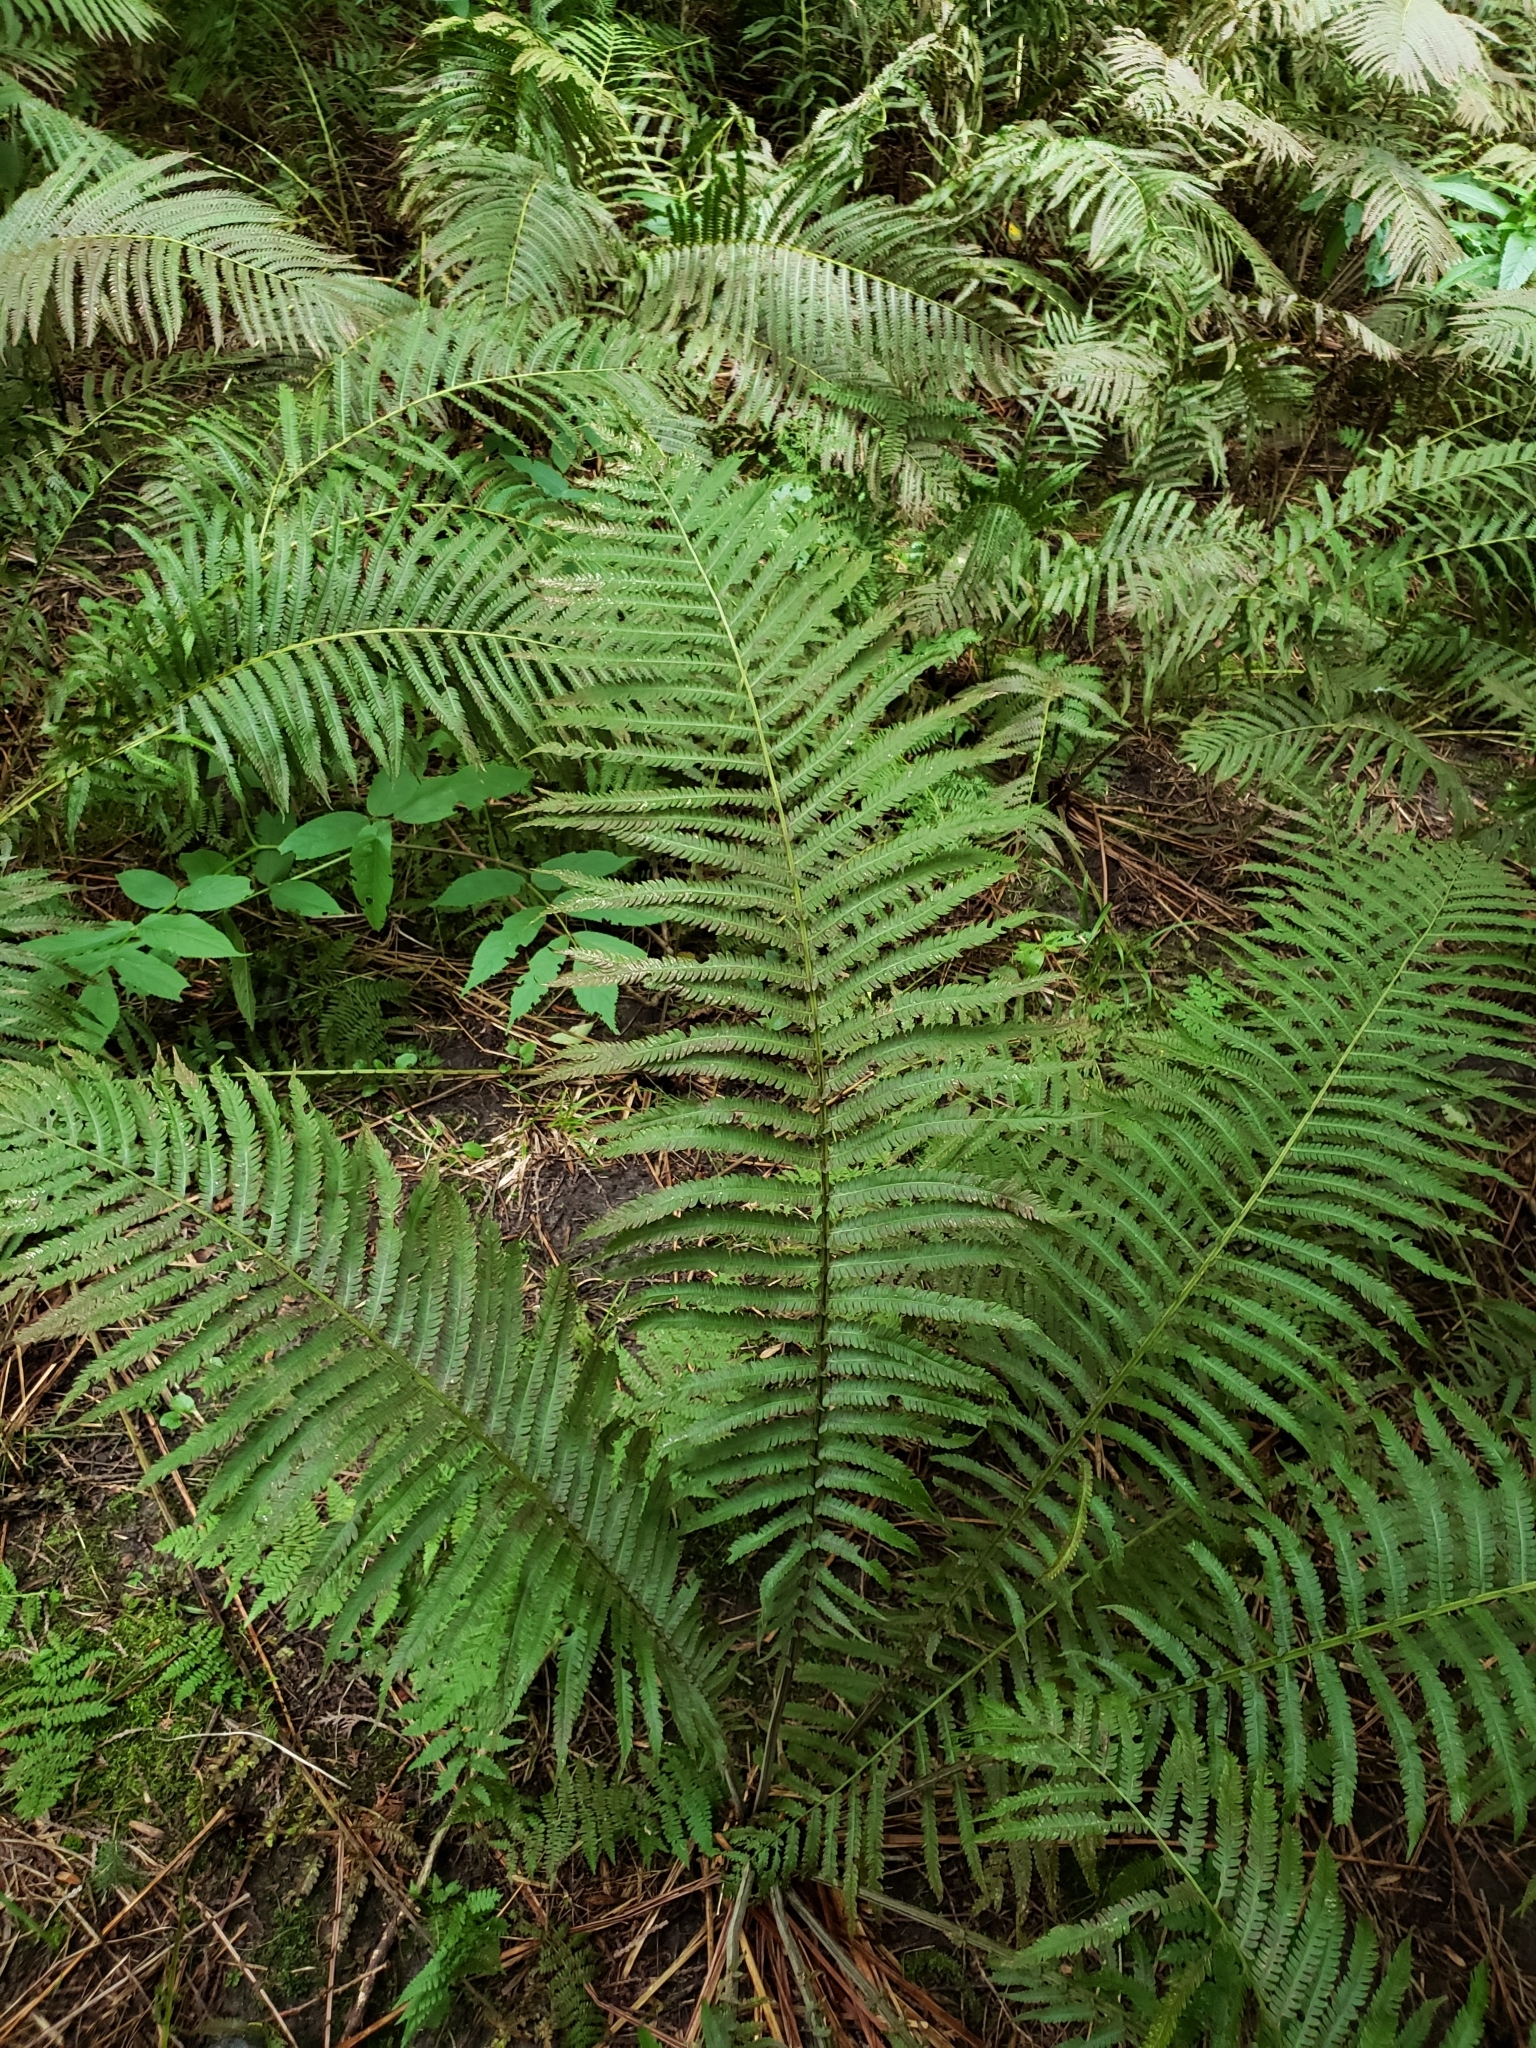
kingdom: Plantae
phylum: Tracheophyta
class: Polypodiopsida
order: Polypodiales
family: Onocleaceae
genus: Matteuccia
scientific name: Matteuccia struthiopteris
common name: Ostrich fern
